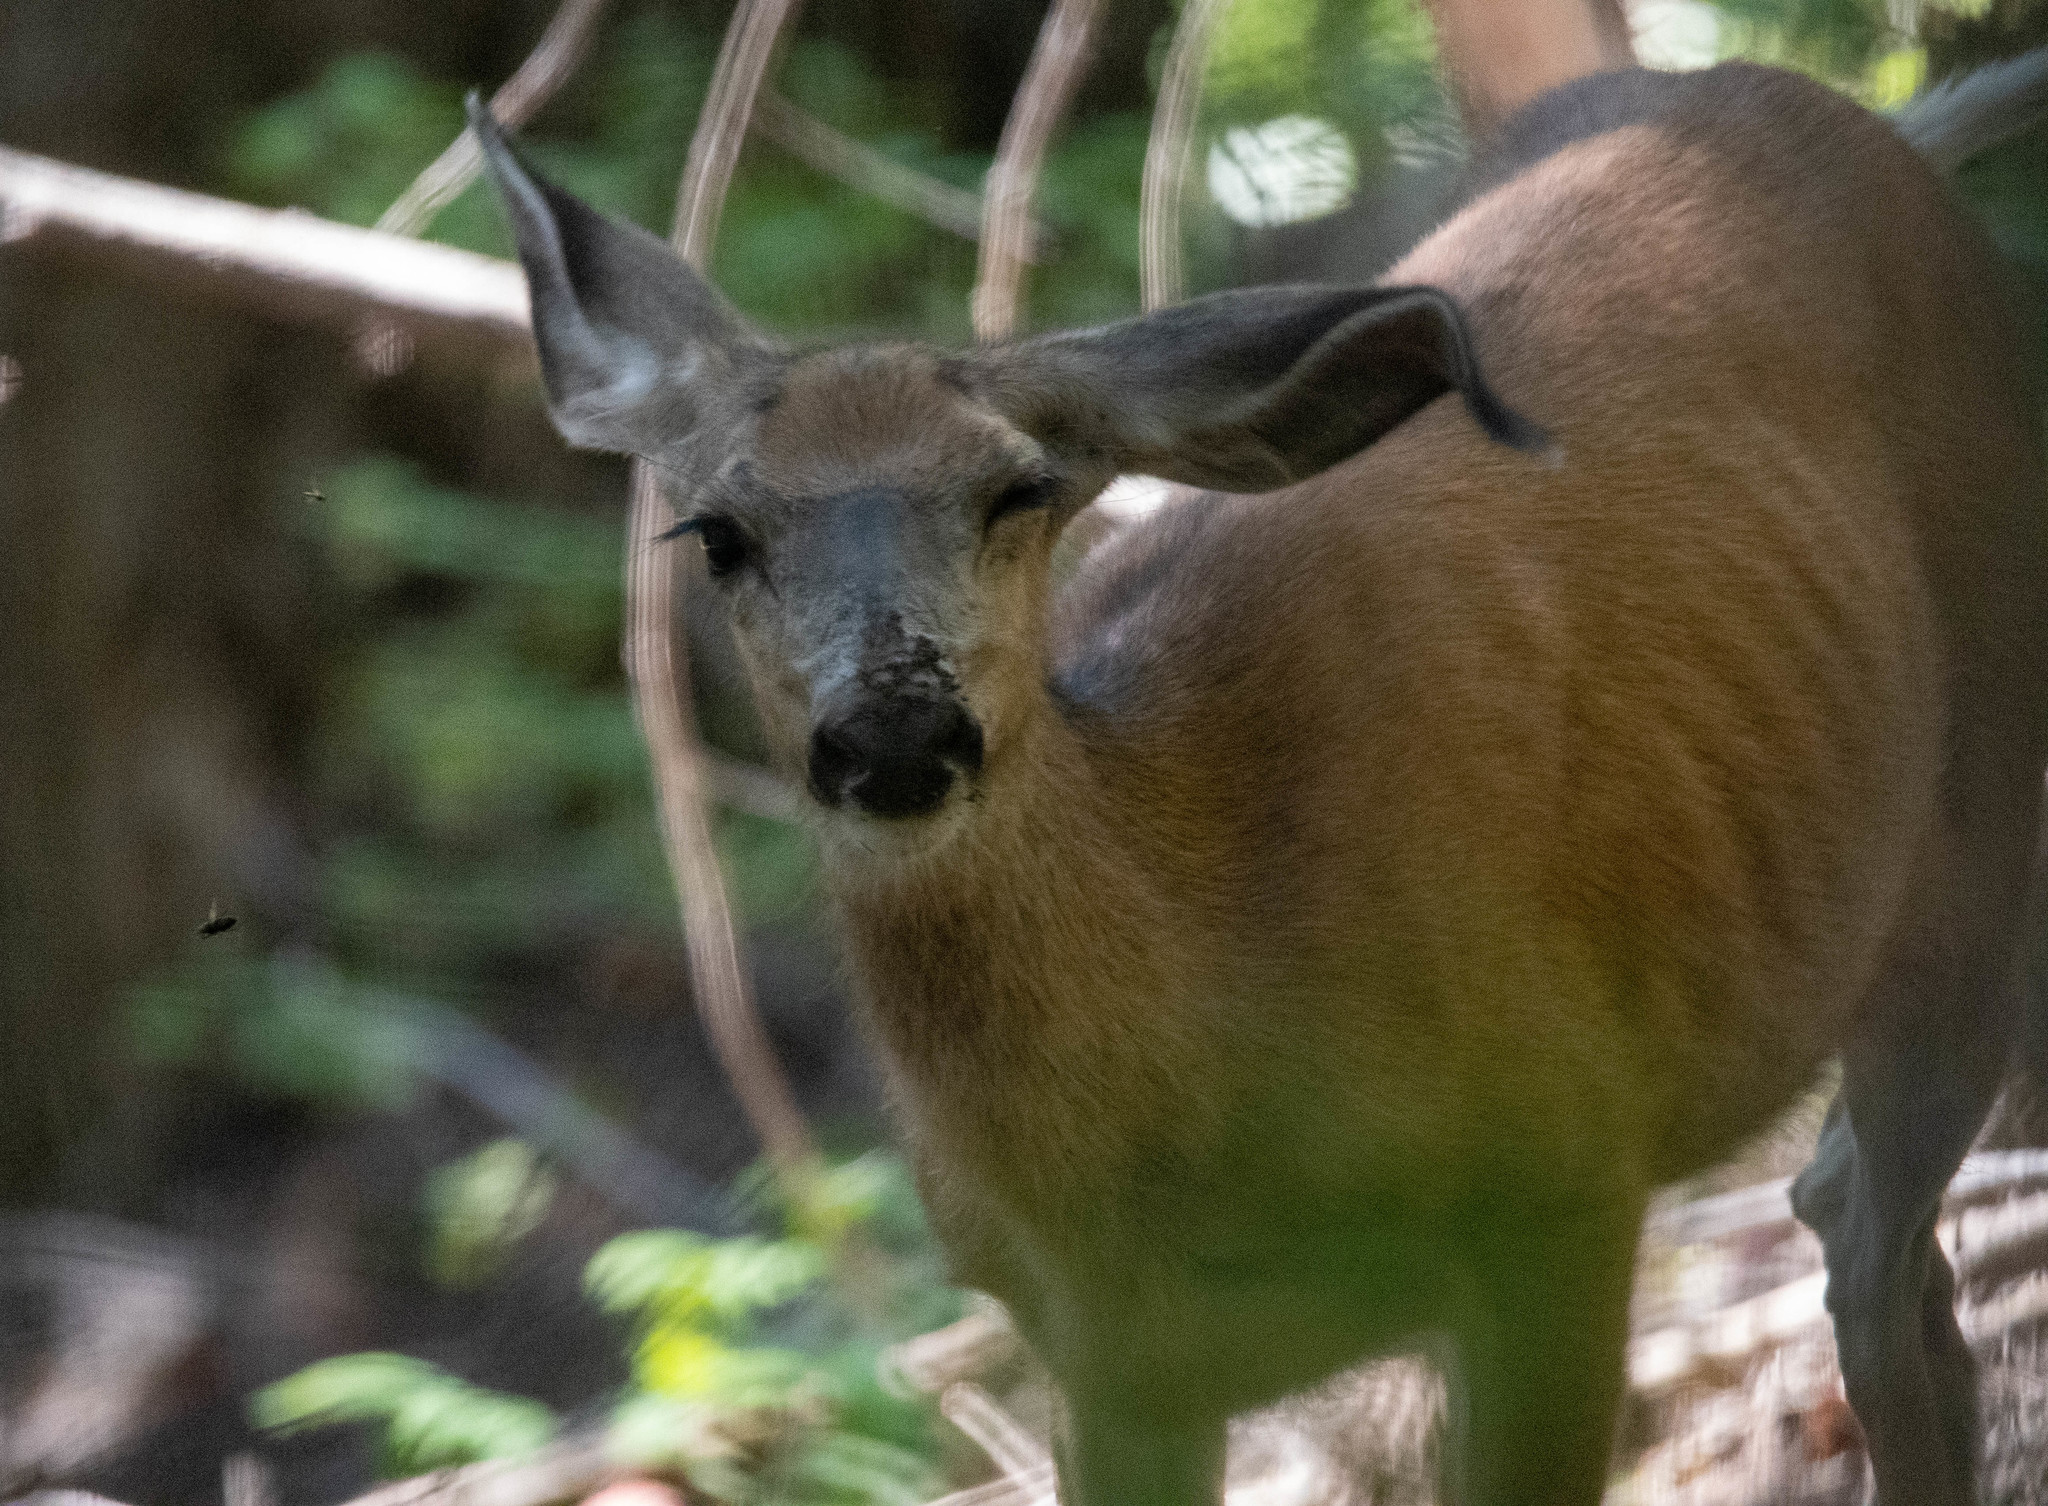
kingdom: Animalia
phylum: Chordata
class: Mammalia
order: Artiodactyla
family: Cervidae
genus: Odocoileus
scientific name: Odocoileus hemionus
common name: Mule deer
